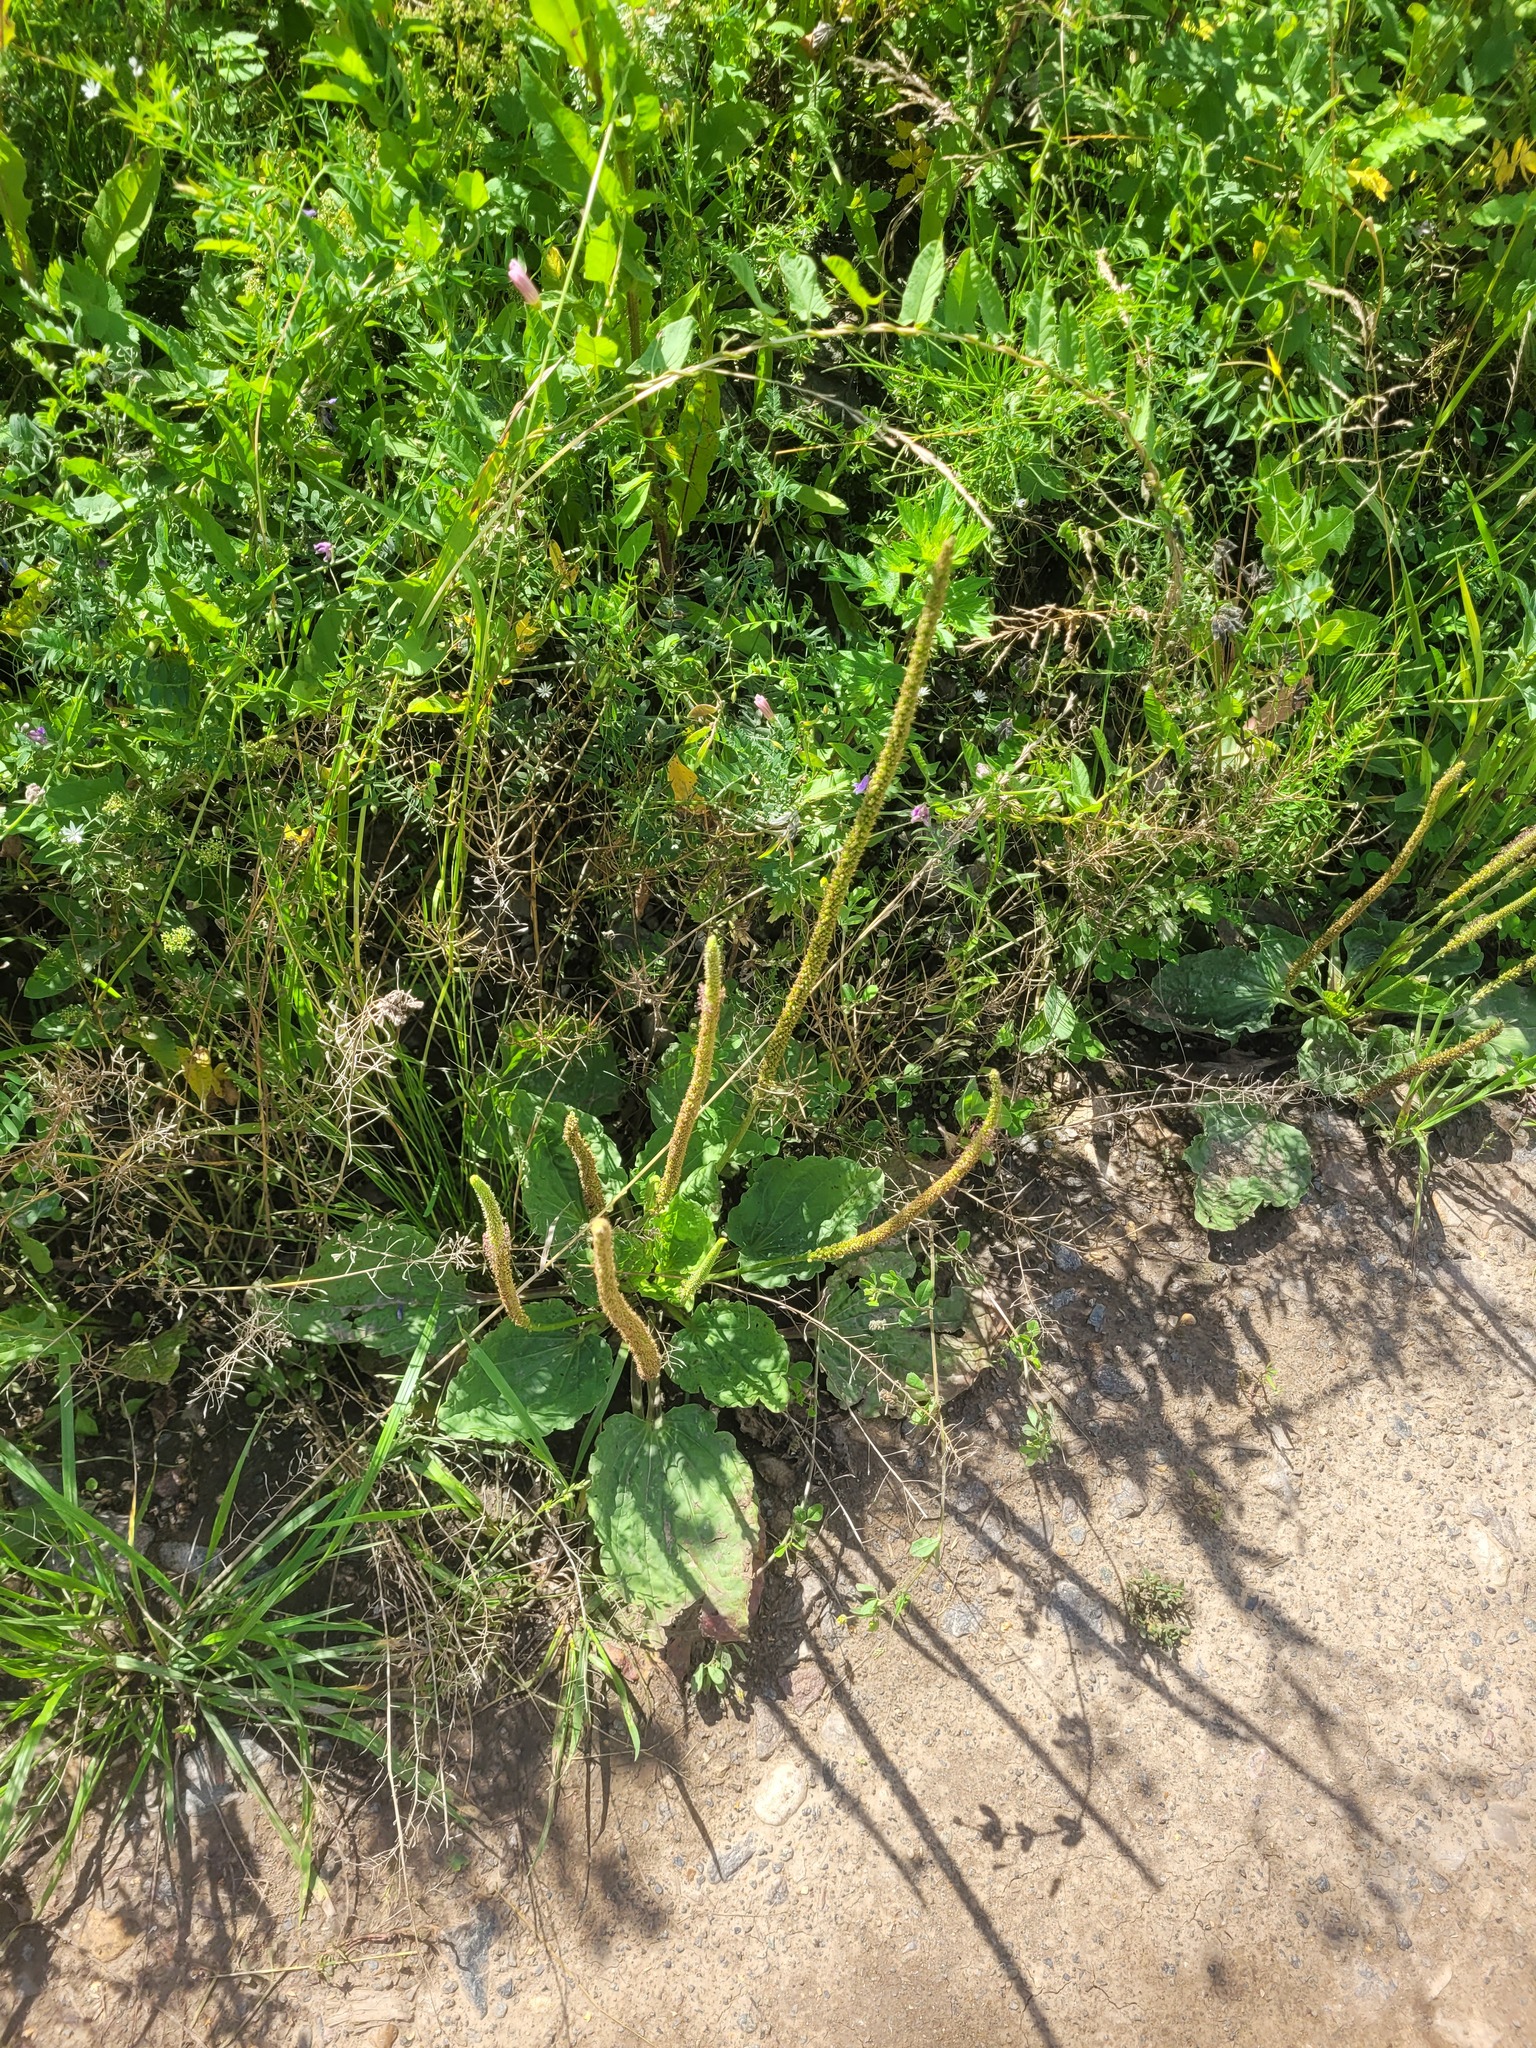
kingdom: Plantae
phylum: Tracheophyta
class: Magnoliopsida
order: Lamiales
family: Plantaginaceae
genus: Plantago
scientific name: Plantago major
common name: Common plantain
